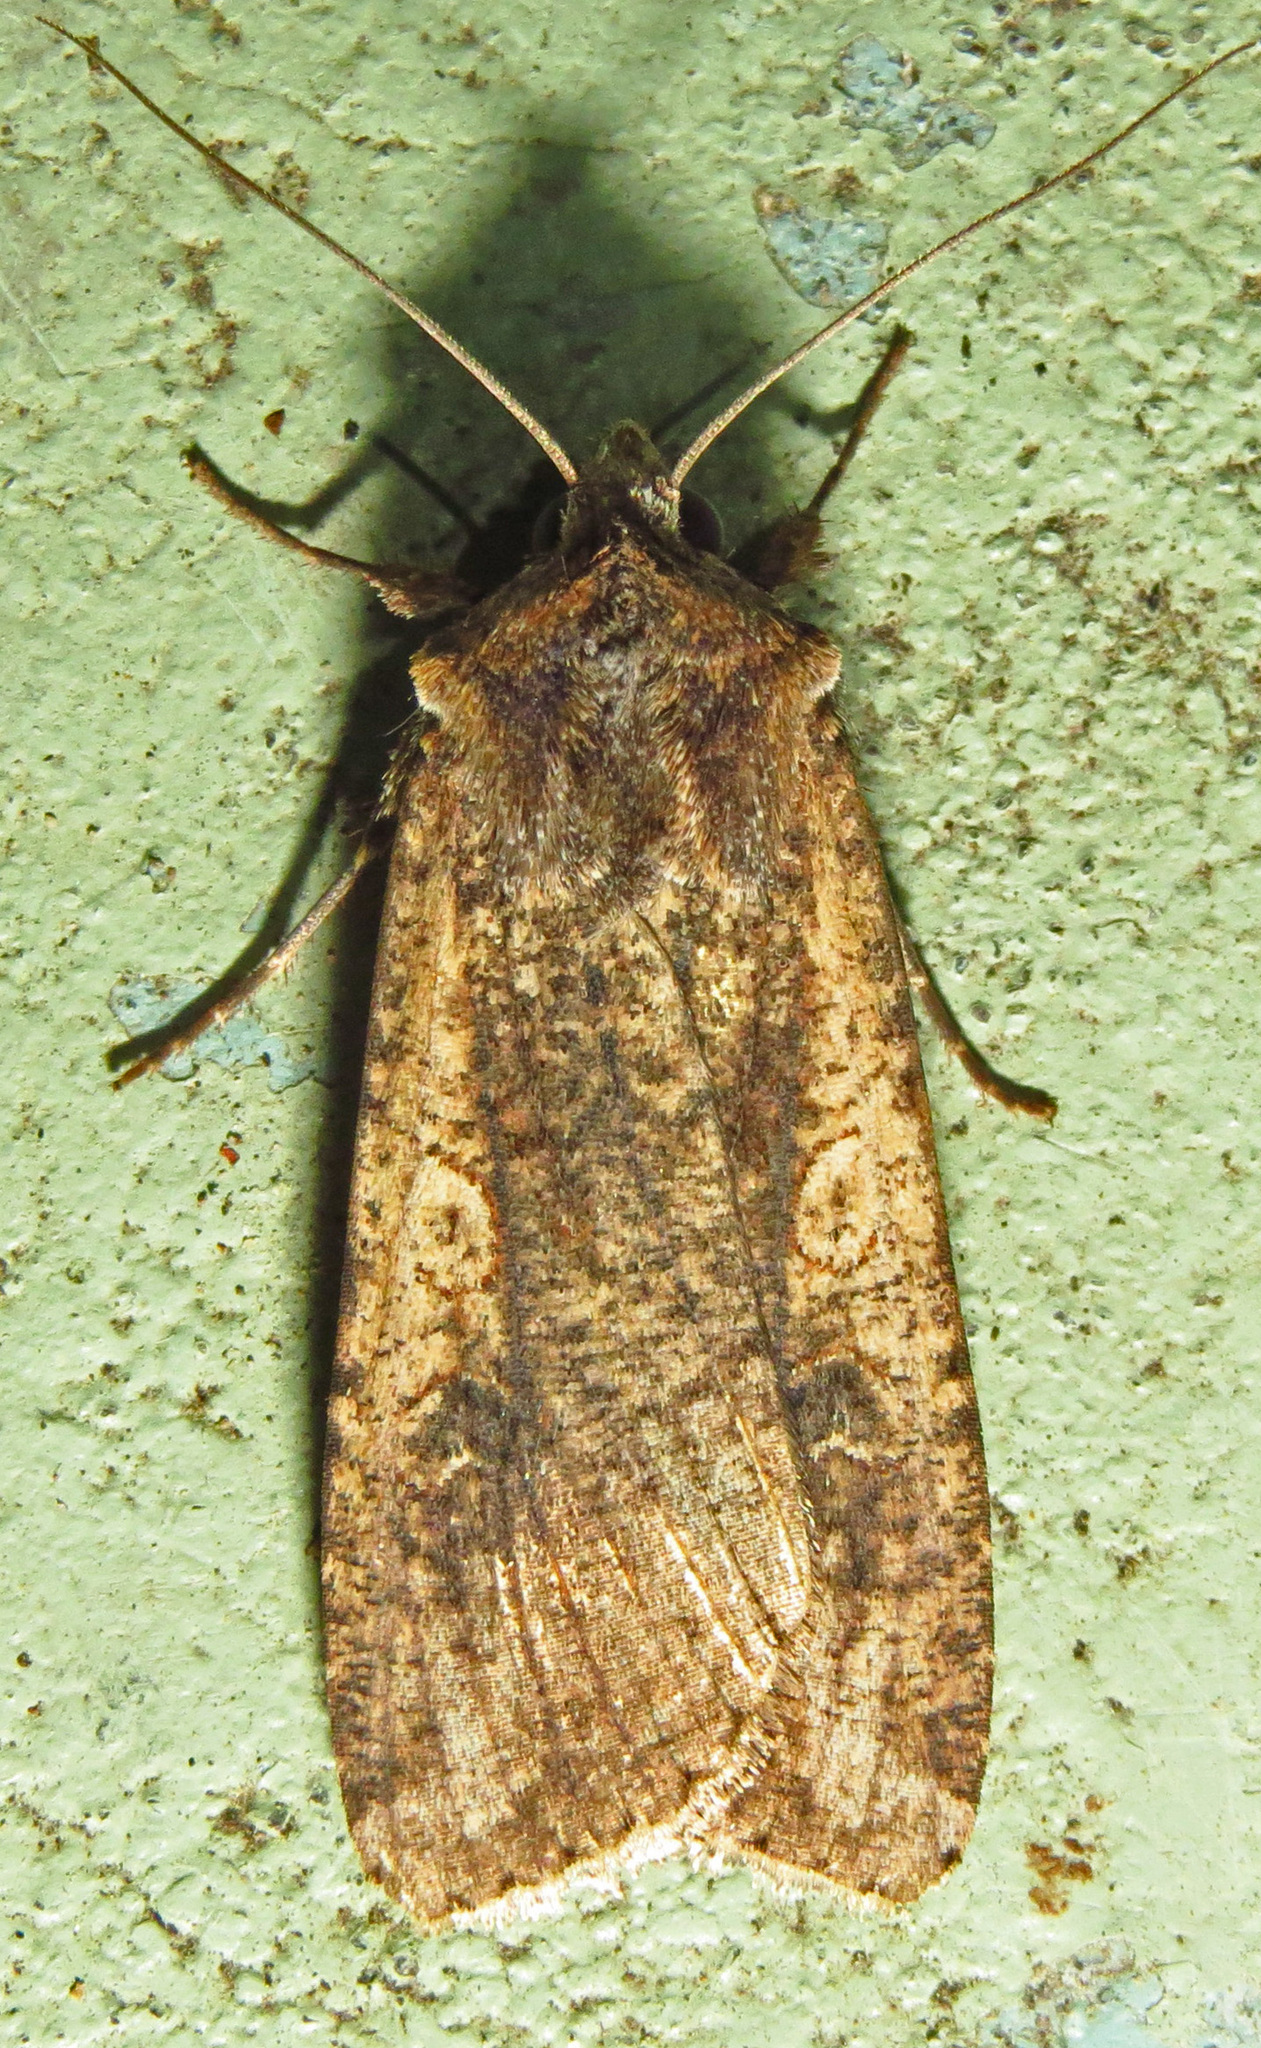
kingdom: Animalia
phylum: Arthropoda
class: Insecta
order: Lepidoptera
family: Noctuidae
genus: Peridroma
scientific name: Peridroma saucia
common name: Pearly underwing
